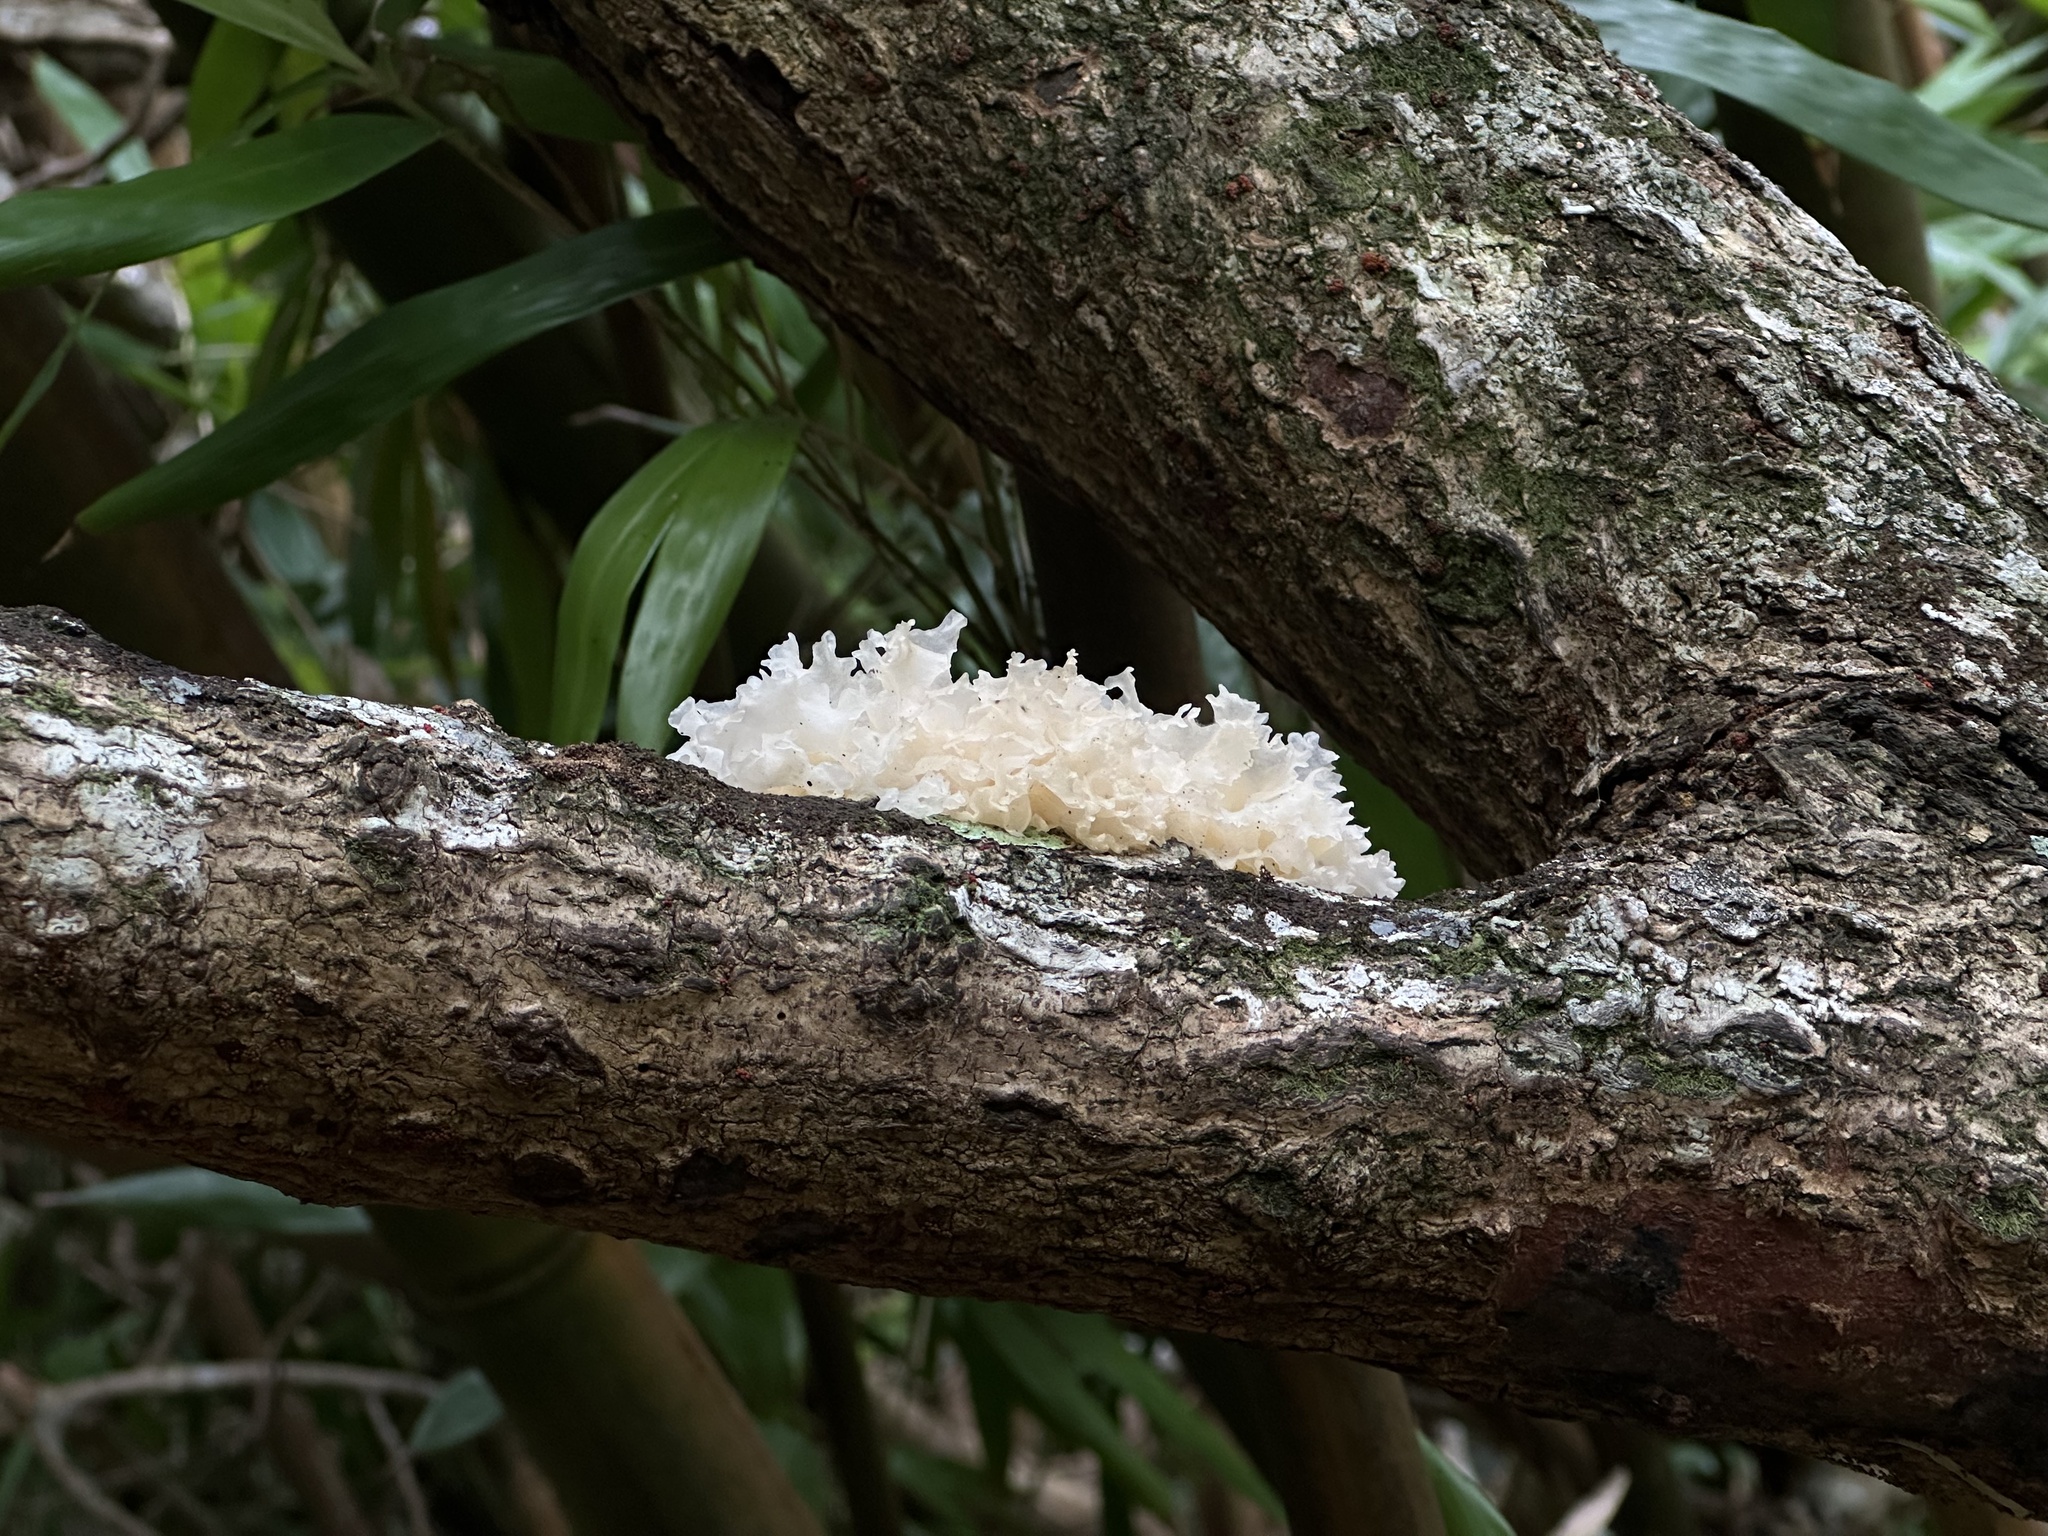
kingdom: Fungi
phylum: Basidiomycota
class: Tremellomycetes
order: Tremellales
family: Tremellaceae
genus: Tremella
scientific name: Tremella fuciformis
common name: Snow fungus
